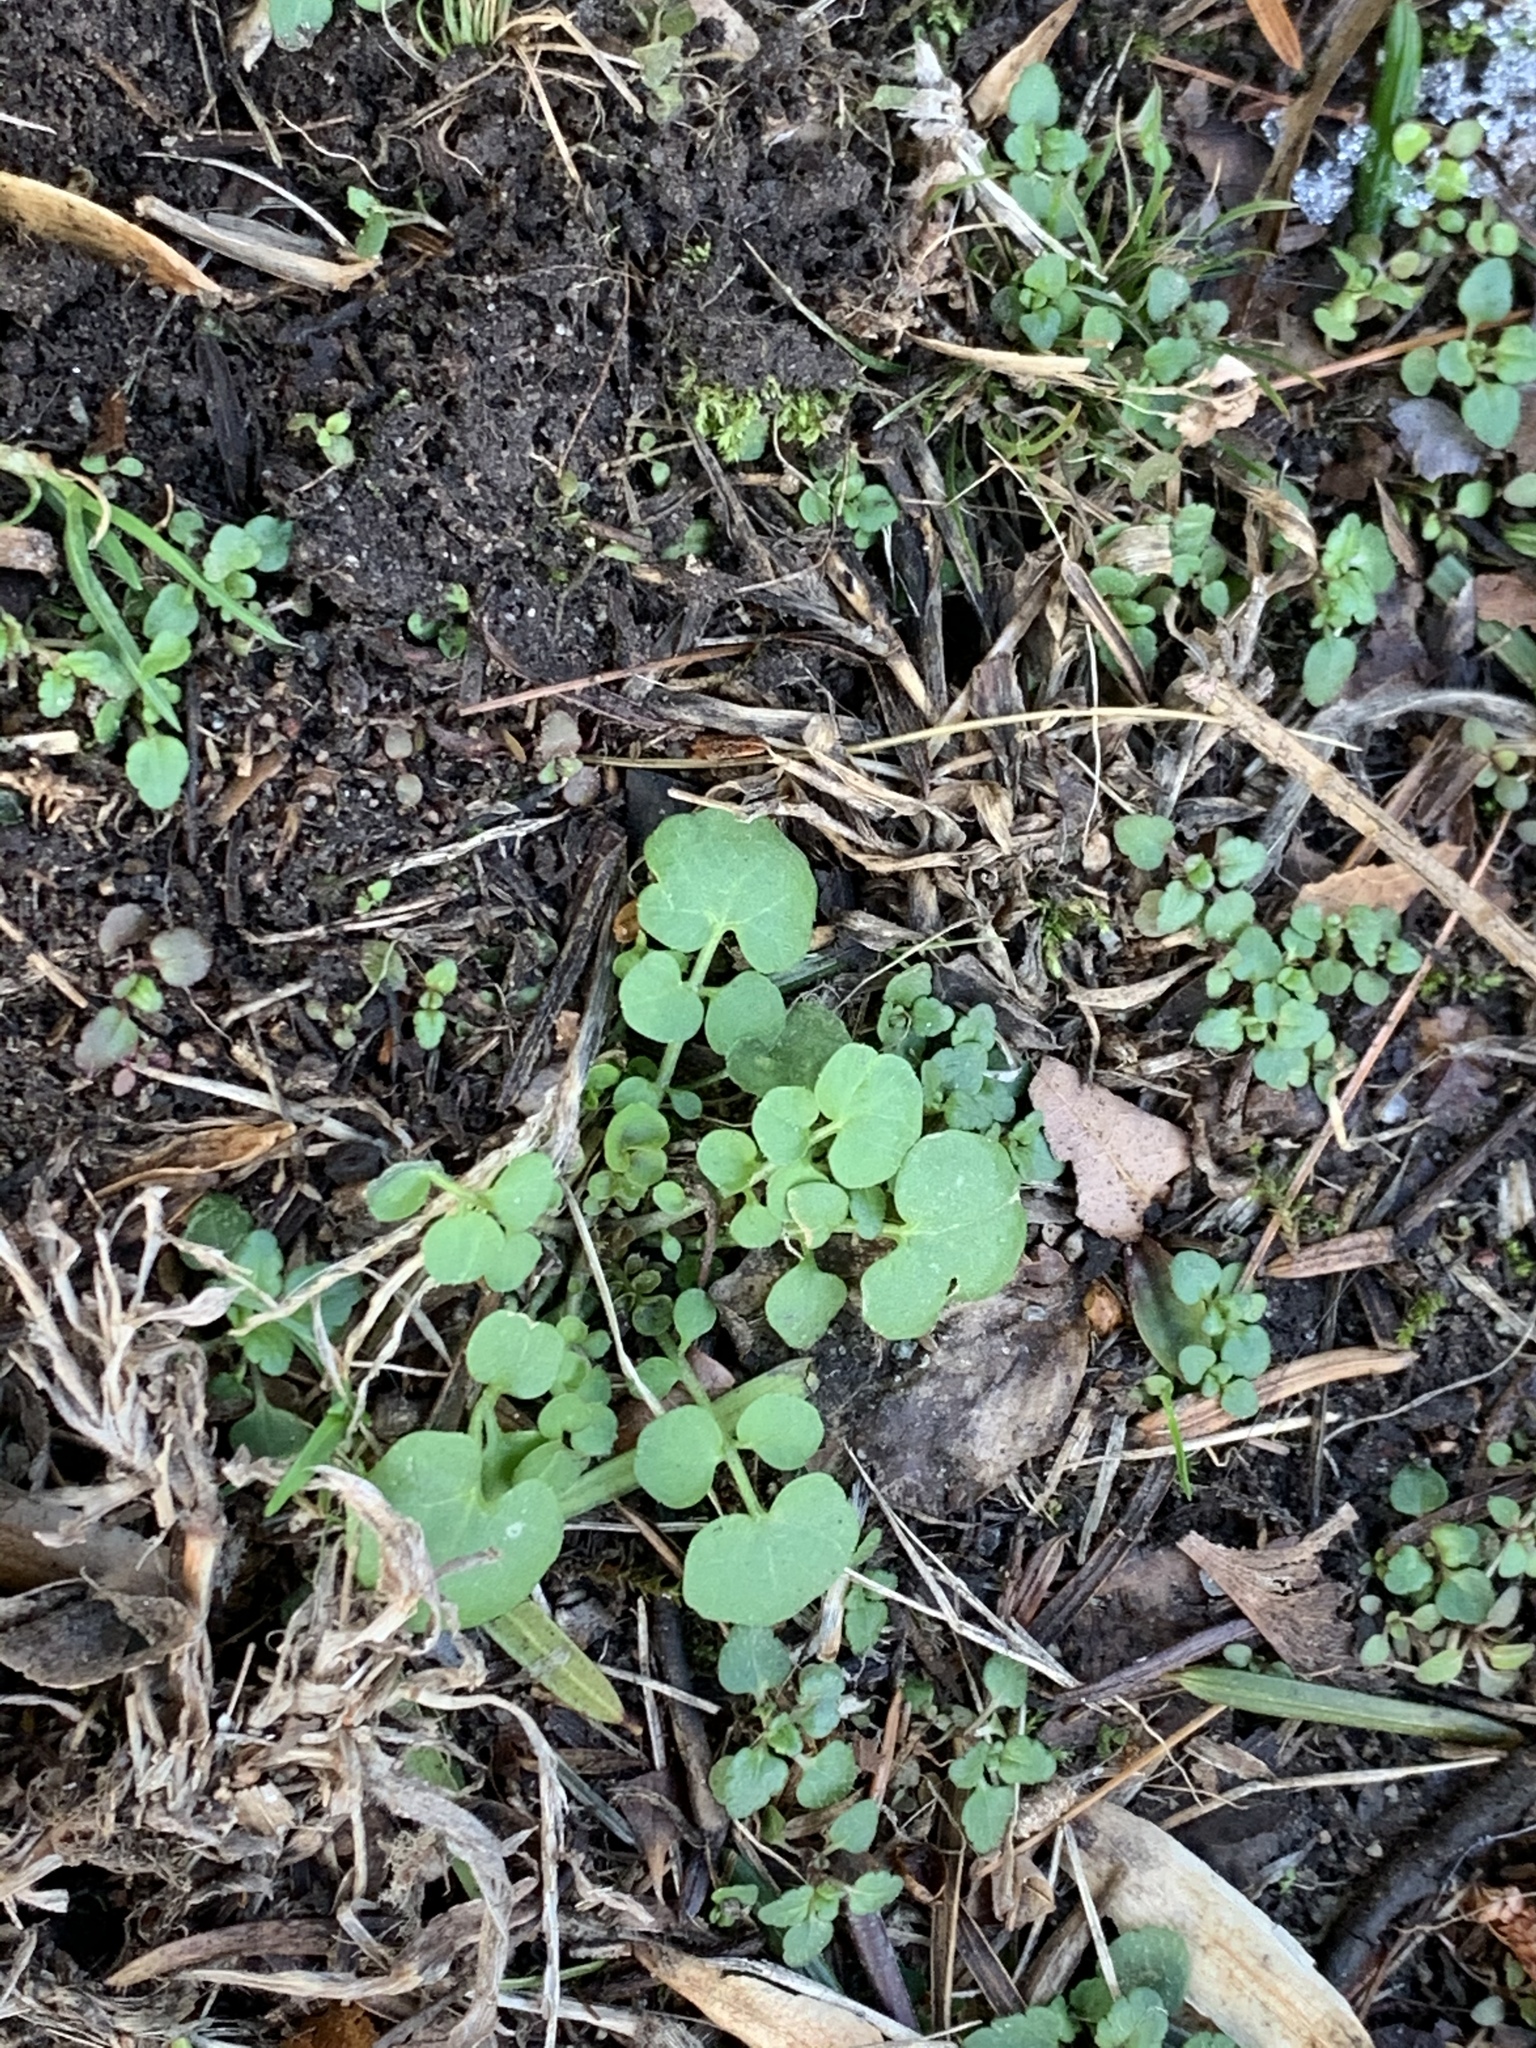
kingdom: Plantae
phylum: Tracheophyta
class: Magnoliopsida
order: Brassicales
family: Brassicaceae
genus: Cardamine
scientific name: Cardamine hirsuta
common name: Hairy bittercress
